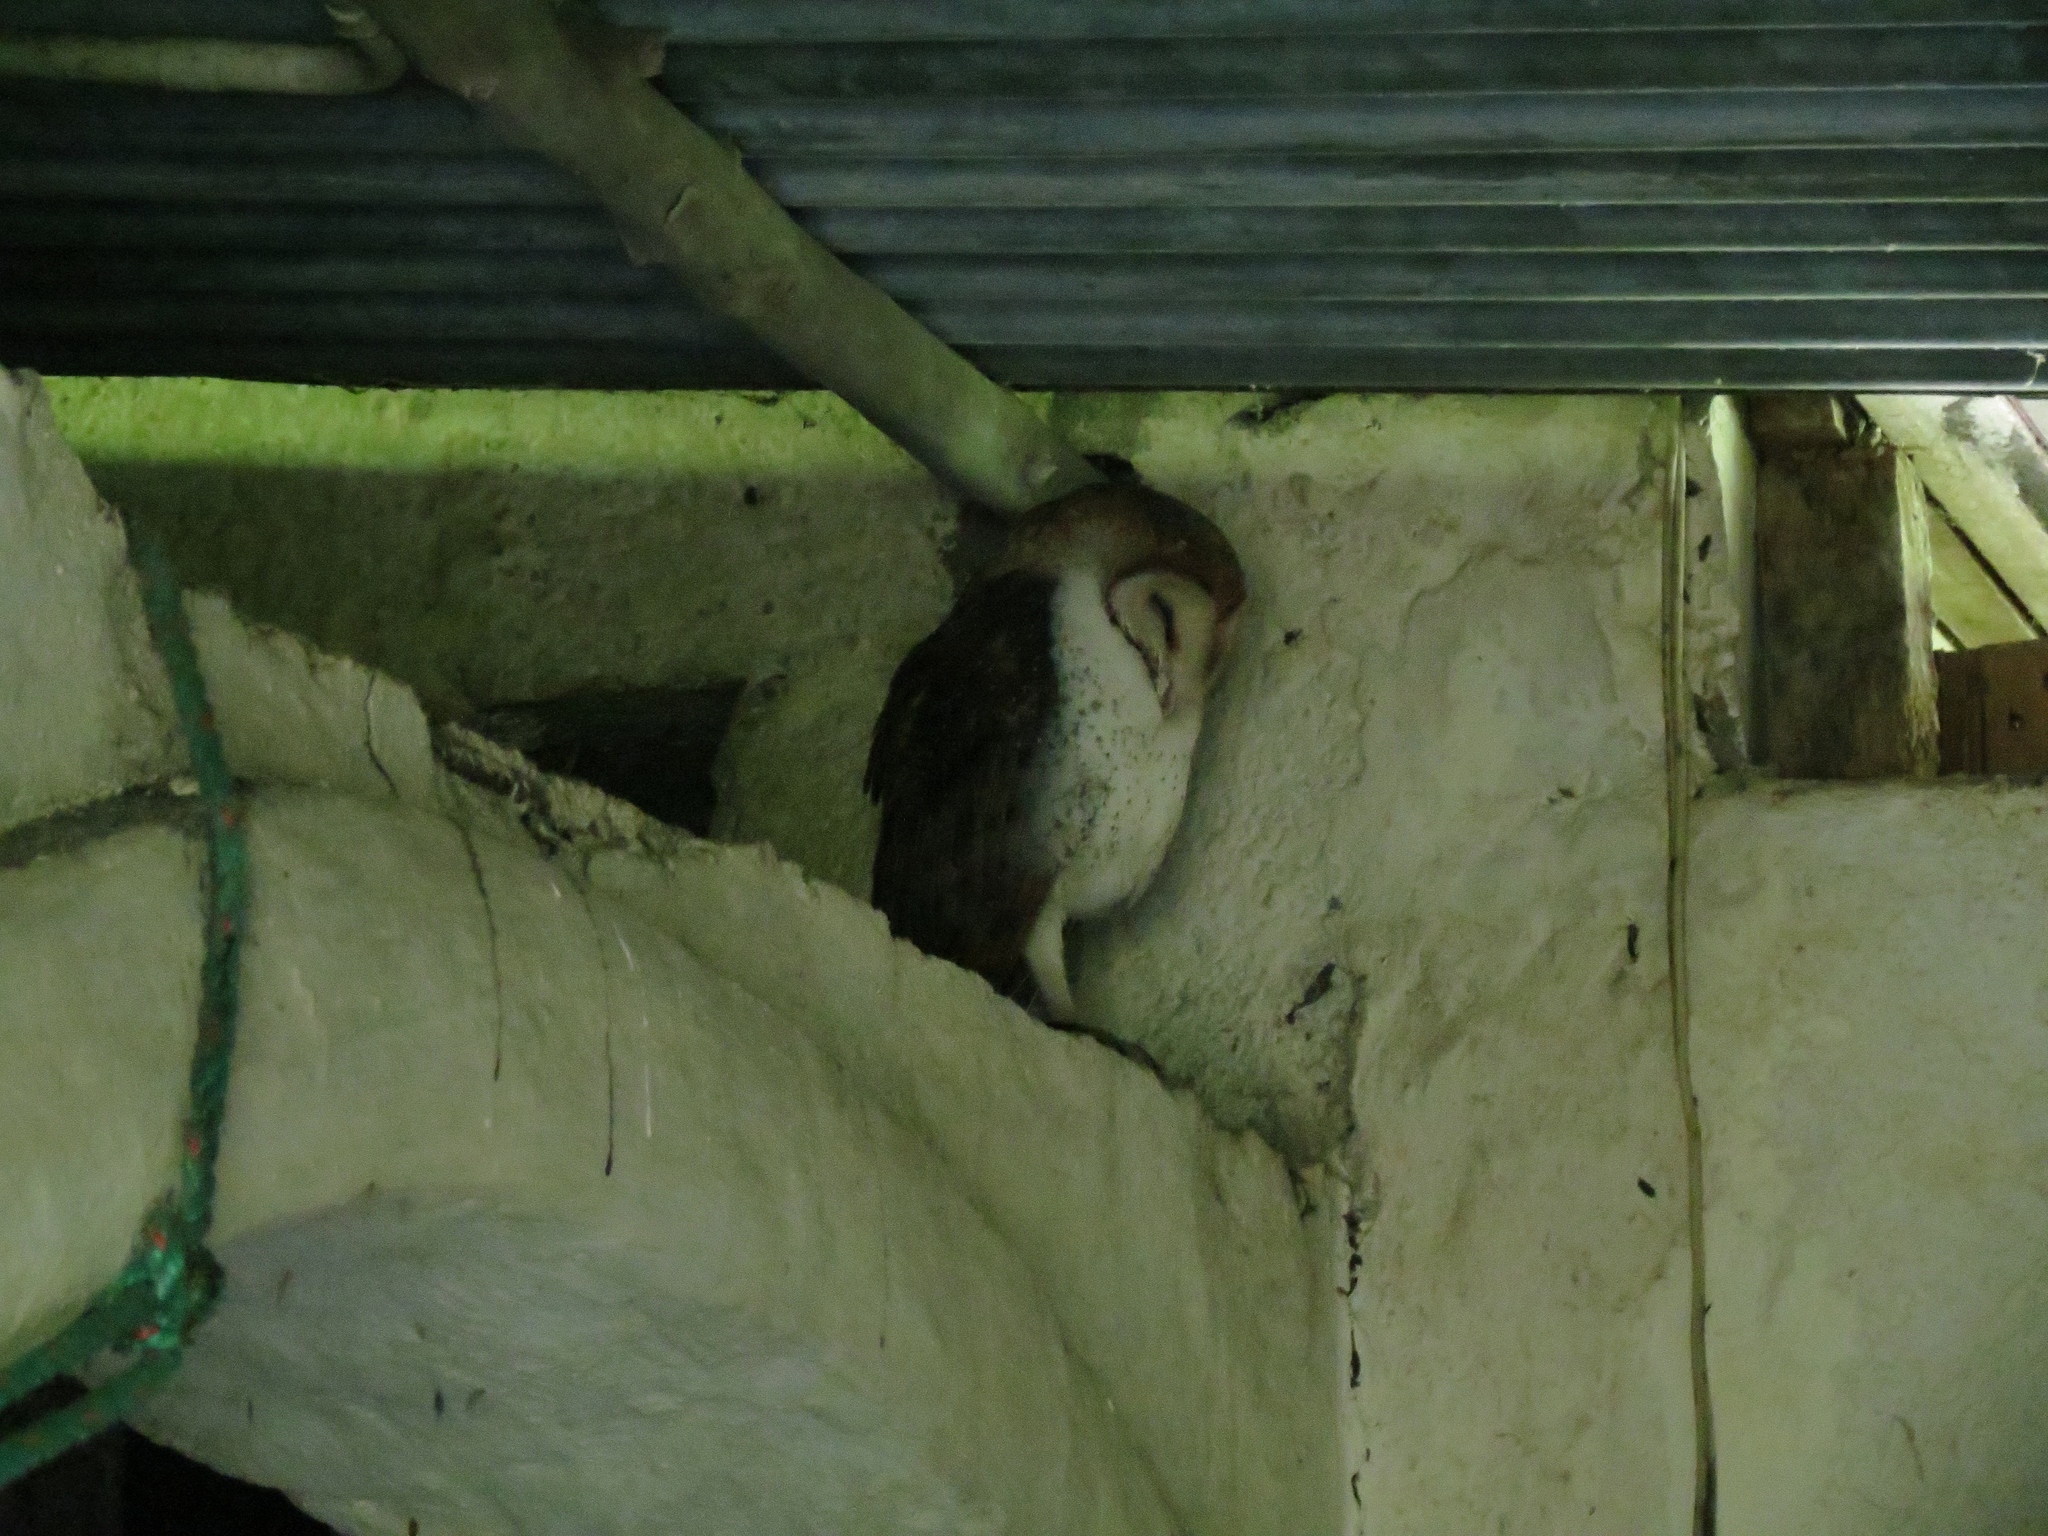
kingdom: Animalia
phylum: Chordata
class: Aves
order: Strigiformes
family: Tytonidae
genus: Tyto
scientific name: Tyto furcata
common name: American barn owl
